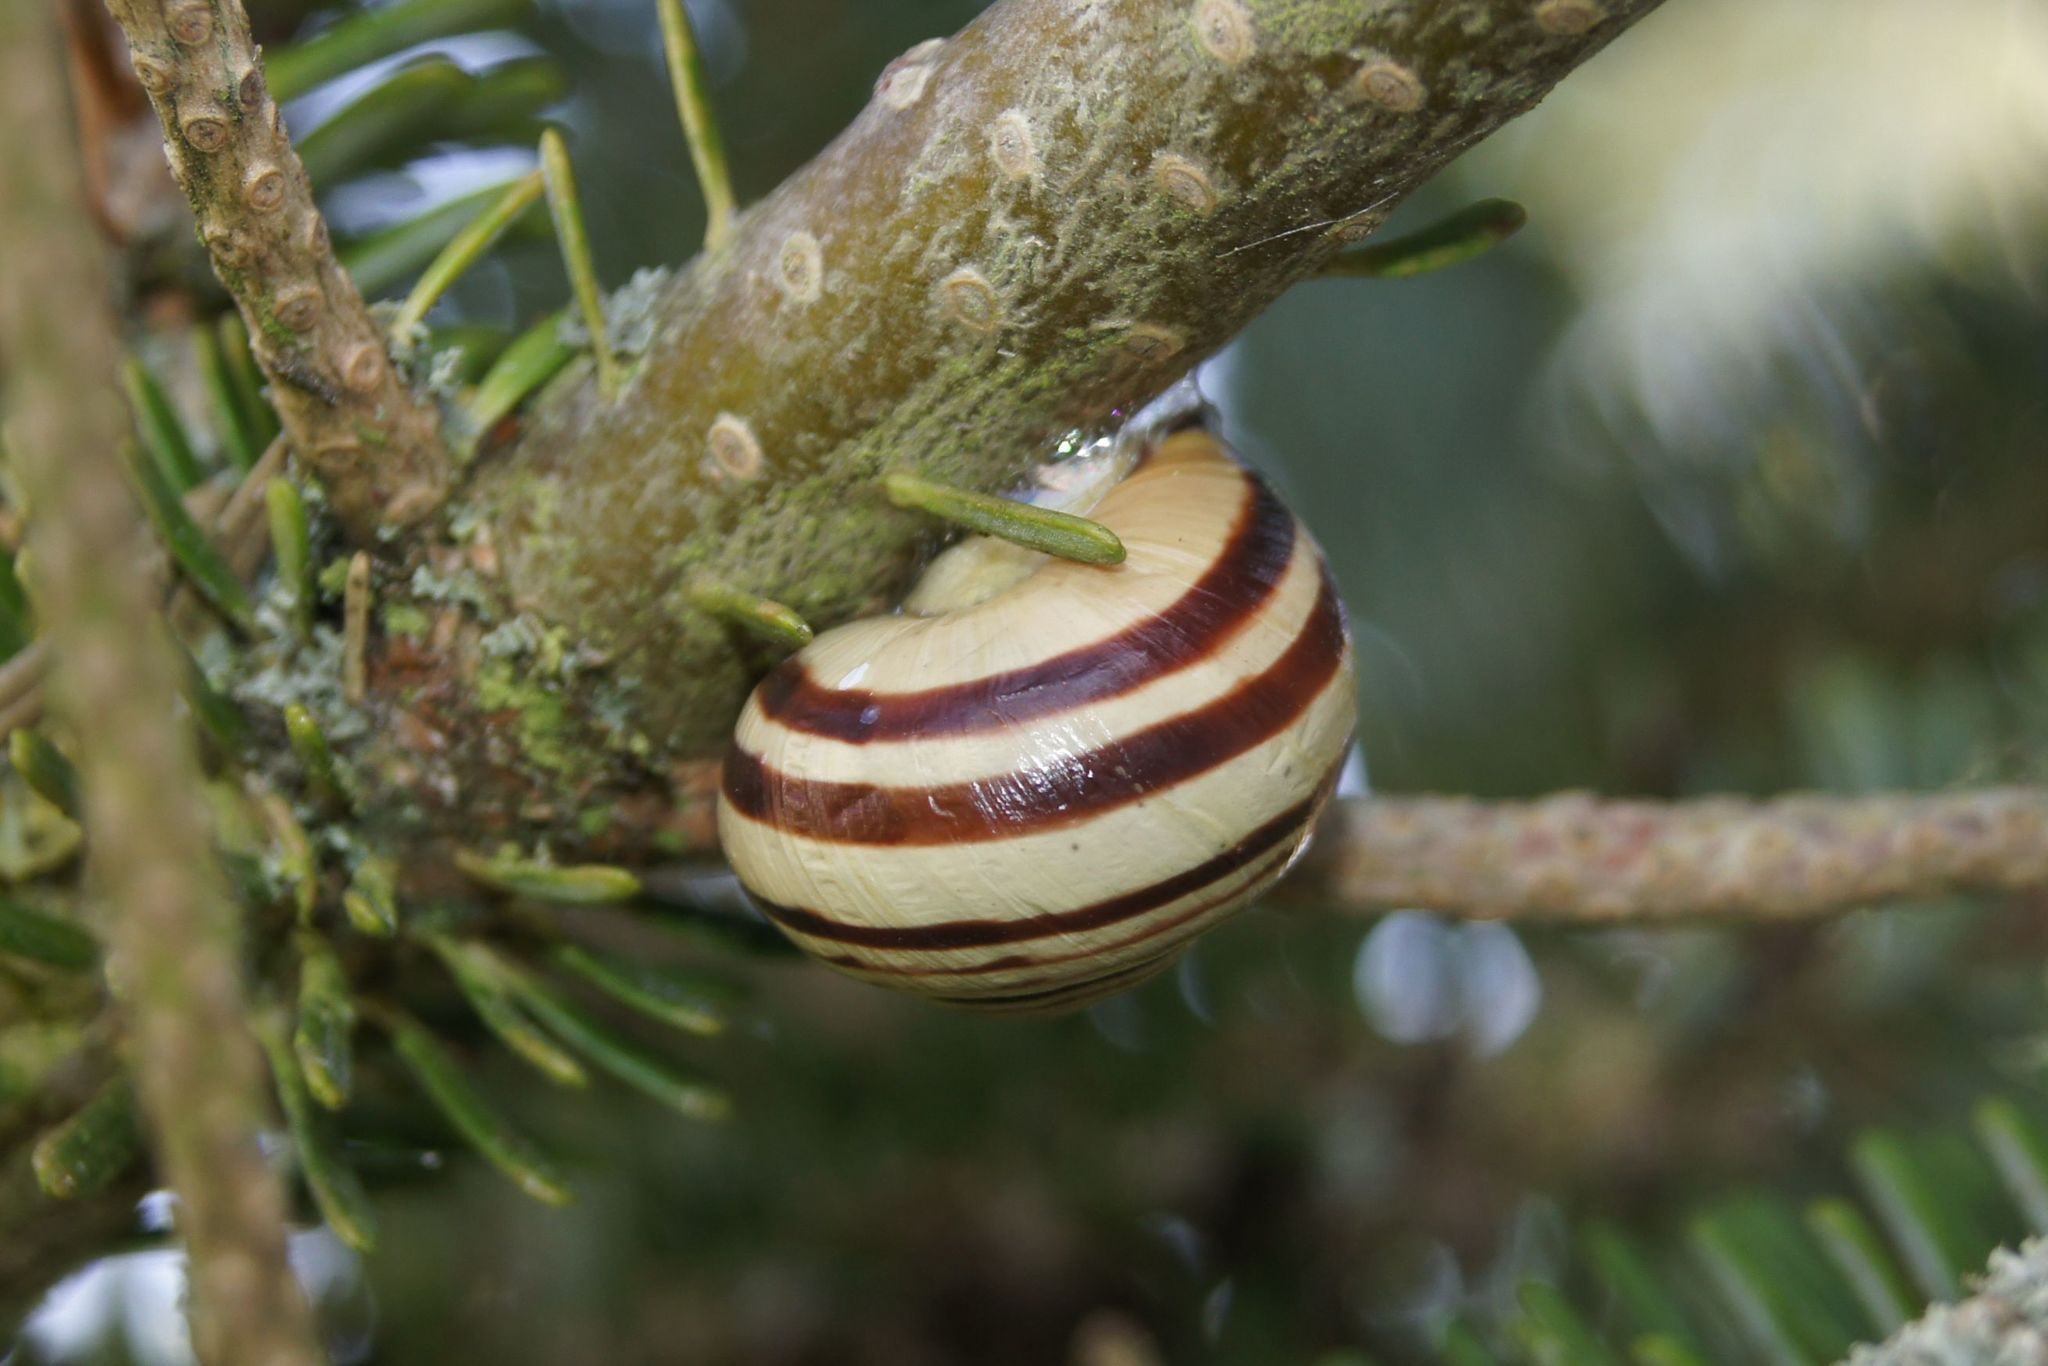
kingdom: Animalia
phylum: Mollusca
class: Gastropoda
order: Stylommatophora
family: Helicidae
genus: Cepaea
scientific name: Cepaea nemoralis
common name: Grovesnail
